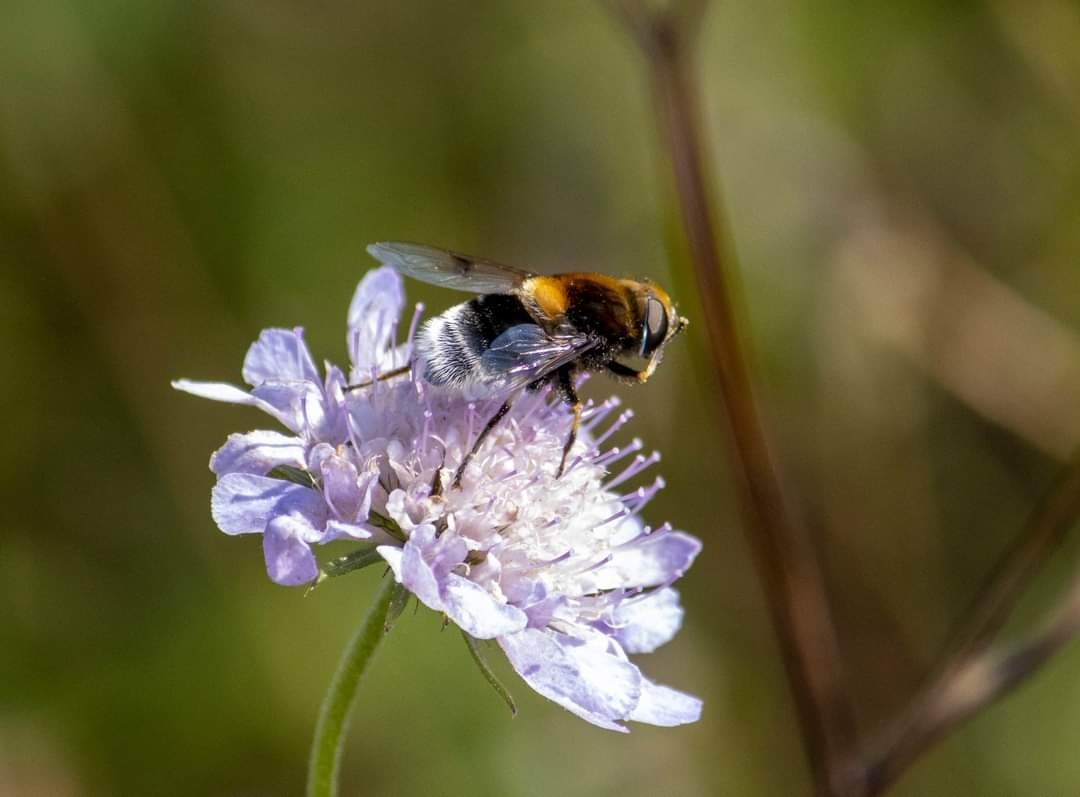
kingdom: Animalia
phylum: Arthropoda
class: Insecta
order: Diptera
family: Syrphidae
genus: Eristalis
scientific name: Eristalis intricaria
